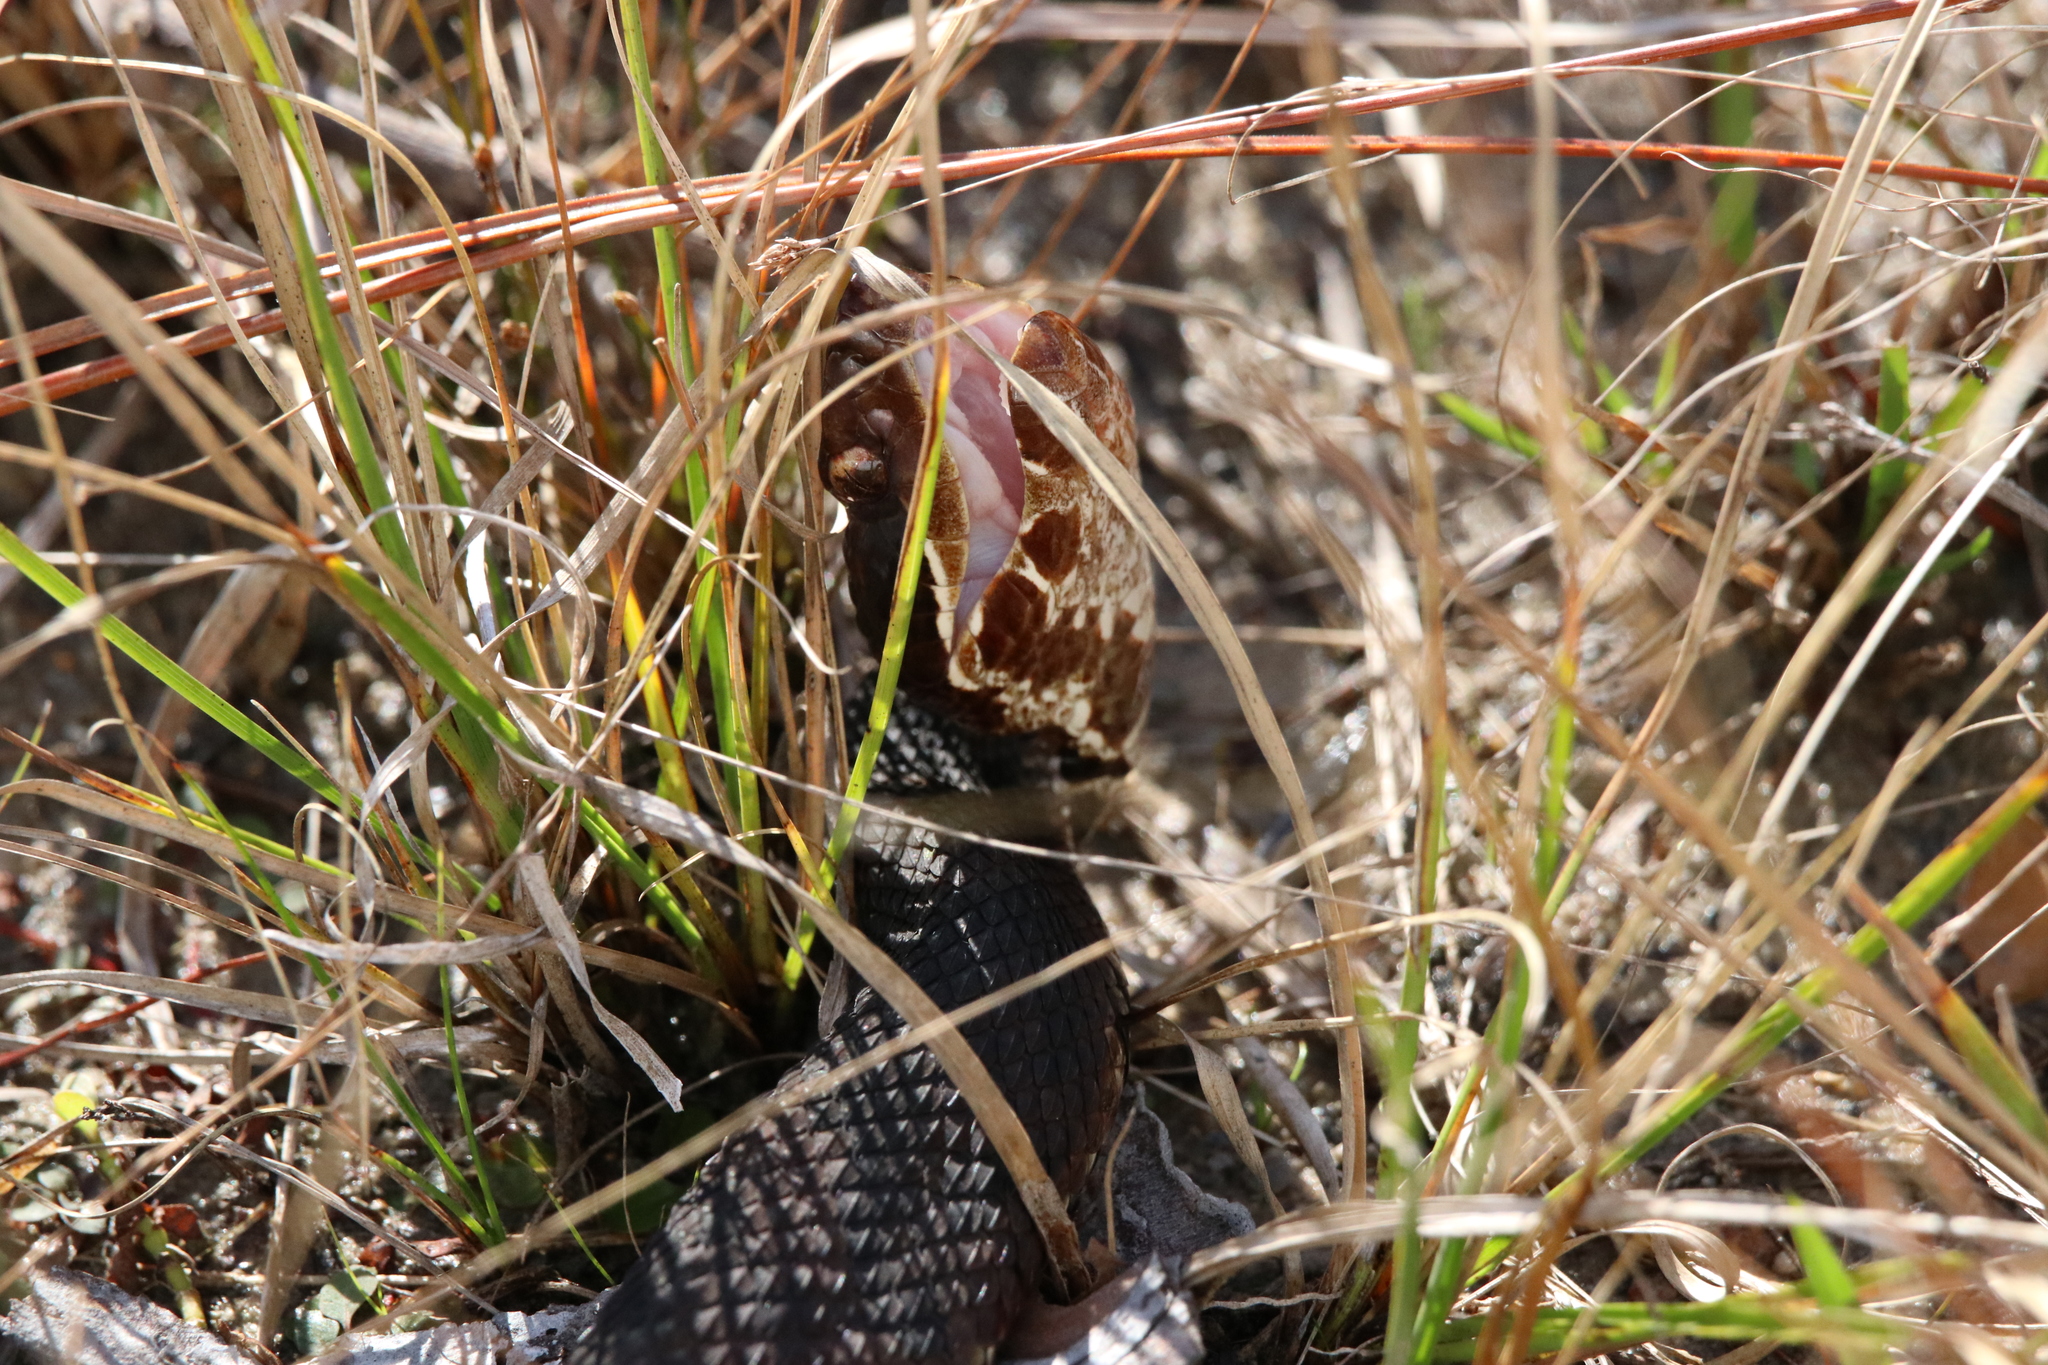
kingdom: Animalia
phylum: Chordata
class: Squamata
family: Viperidae
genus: Agkistrodon
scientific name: Agkistrodon piscivorus
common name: Cottonmouth
